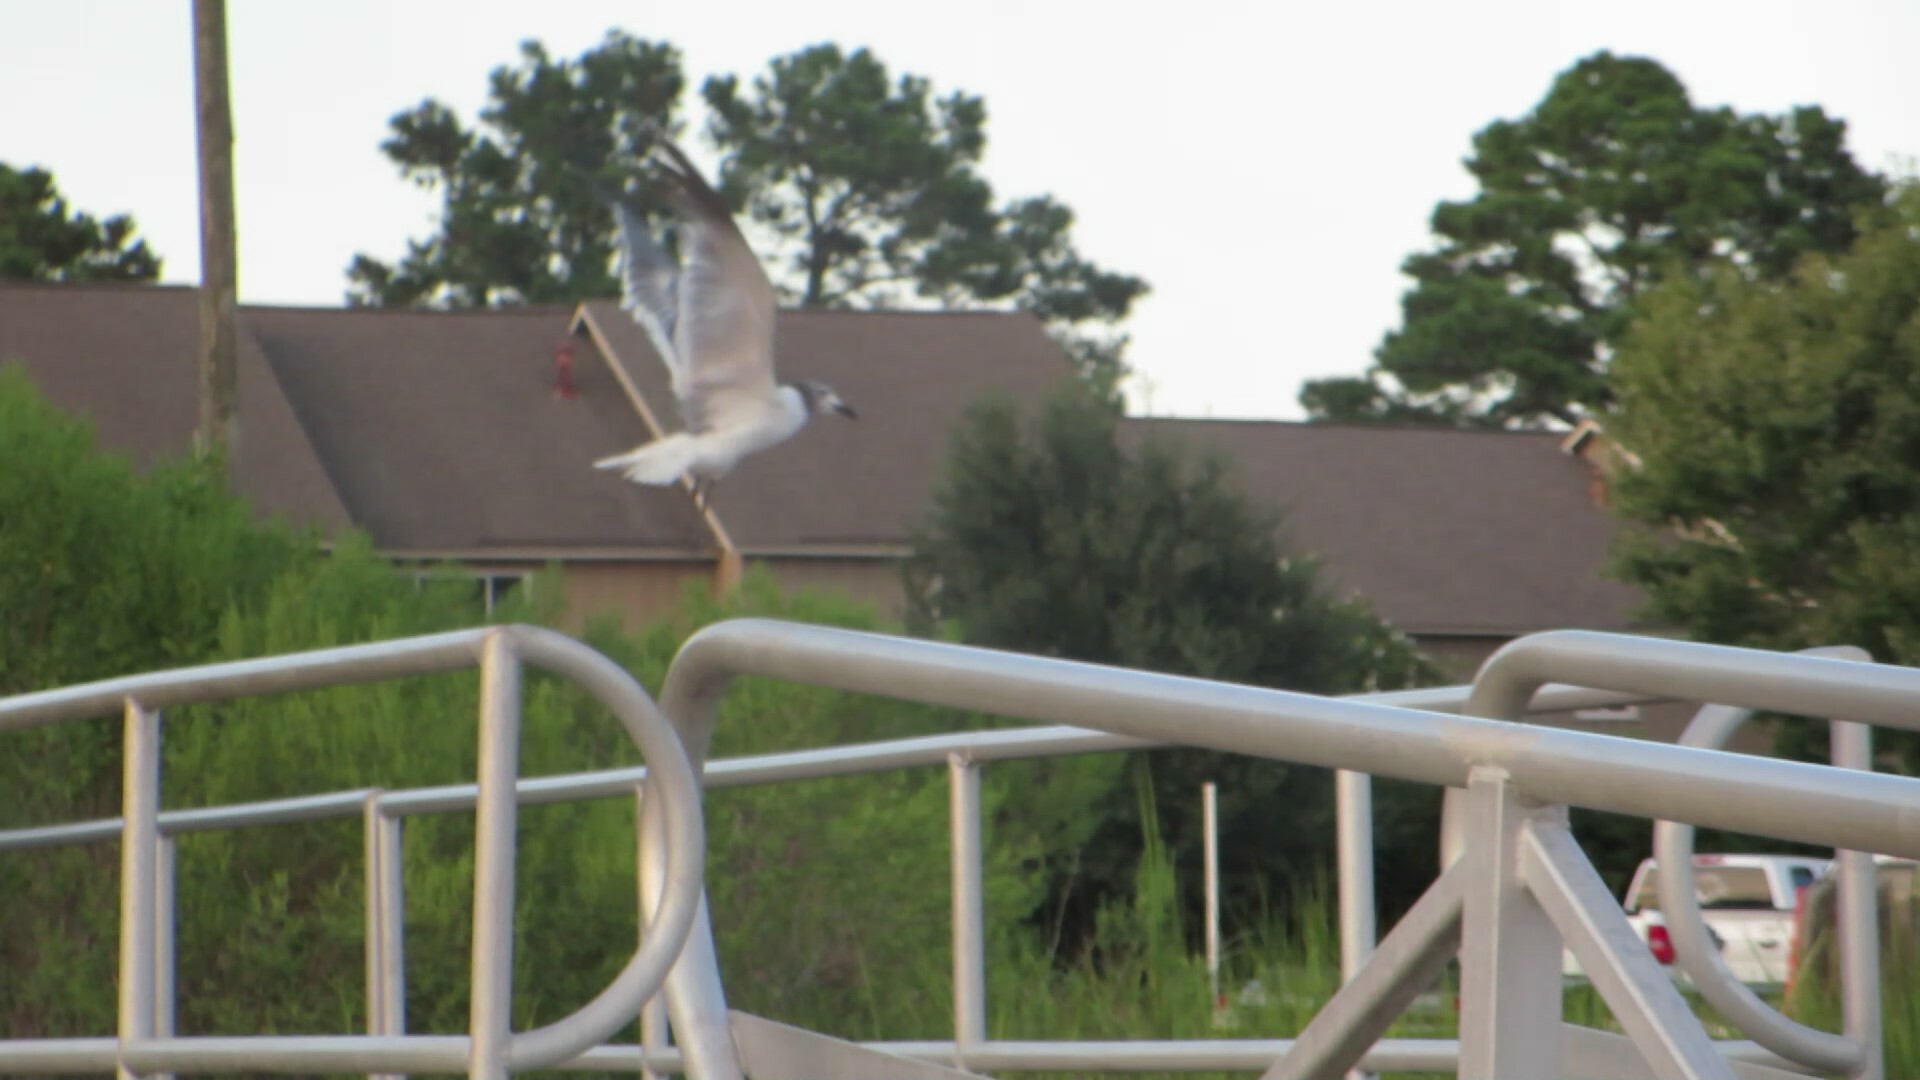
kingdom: Animalia
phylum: Chordata
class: Aves
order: Charadriiformes
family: Laridae
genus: Leucophaeus
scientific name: Leucophaeus atricilla
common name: Laughing gull
